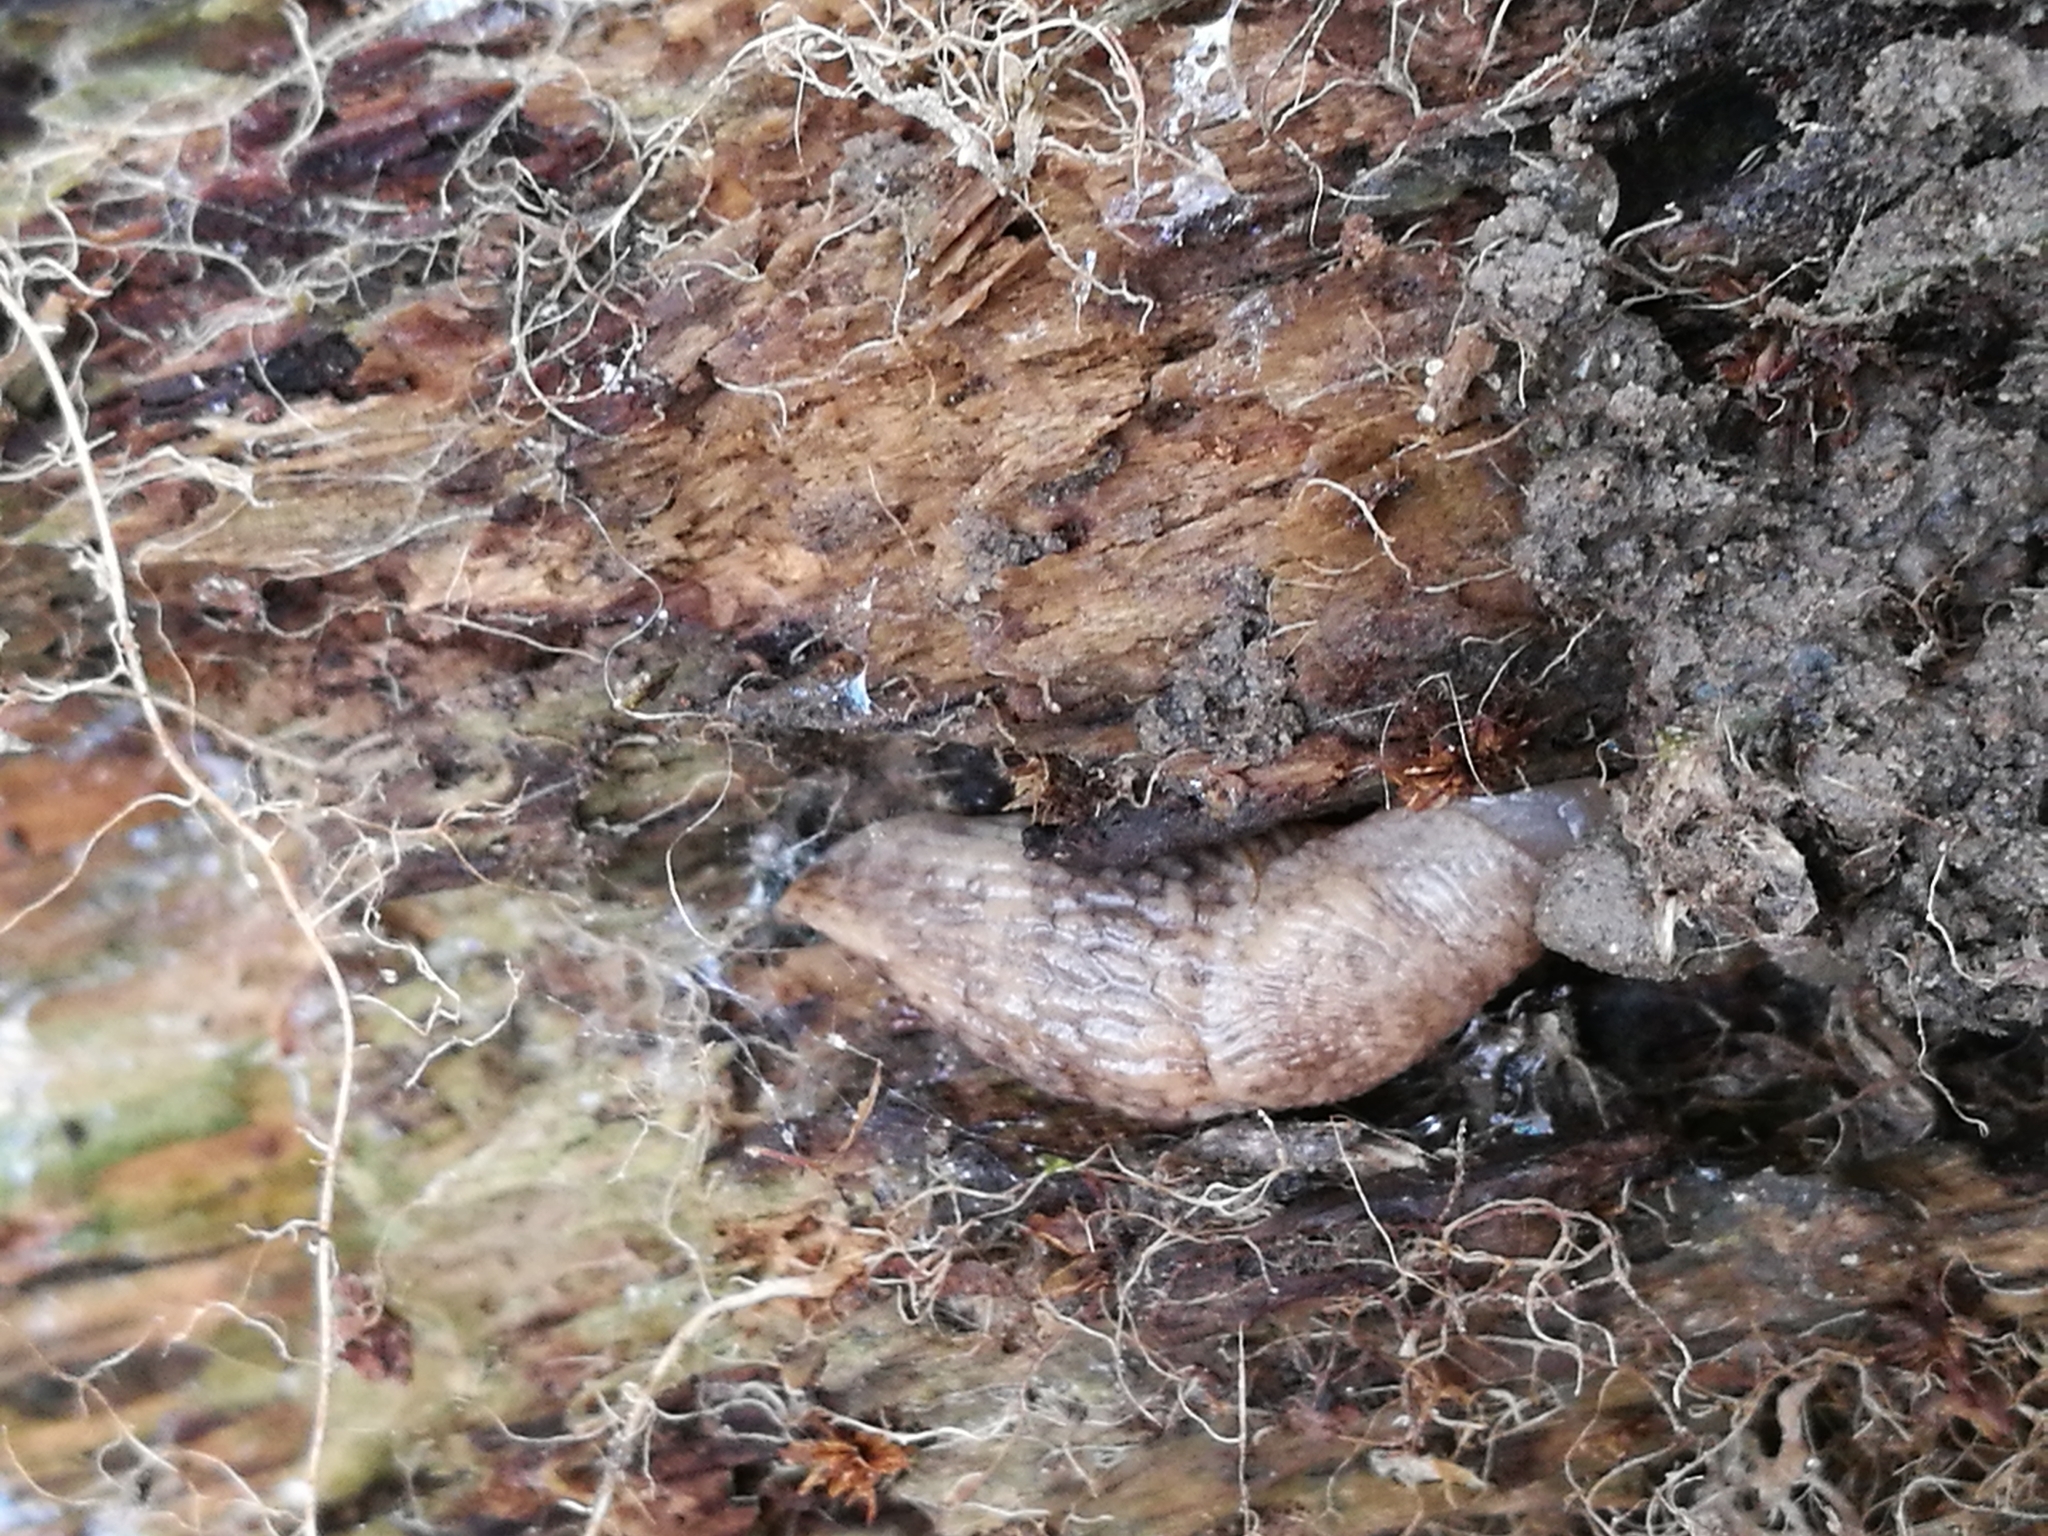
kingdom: Animalia
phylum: Mollusca
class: Gastropoda
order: Stylommatophora
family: Agriolimacidae
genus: Deroceras
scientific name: Deroceras reticulatum
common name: Gray field slug
